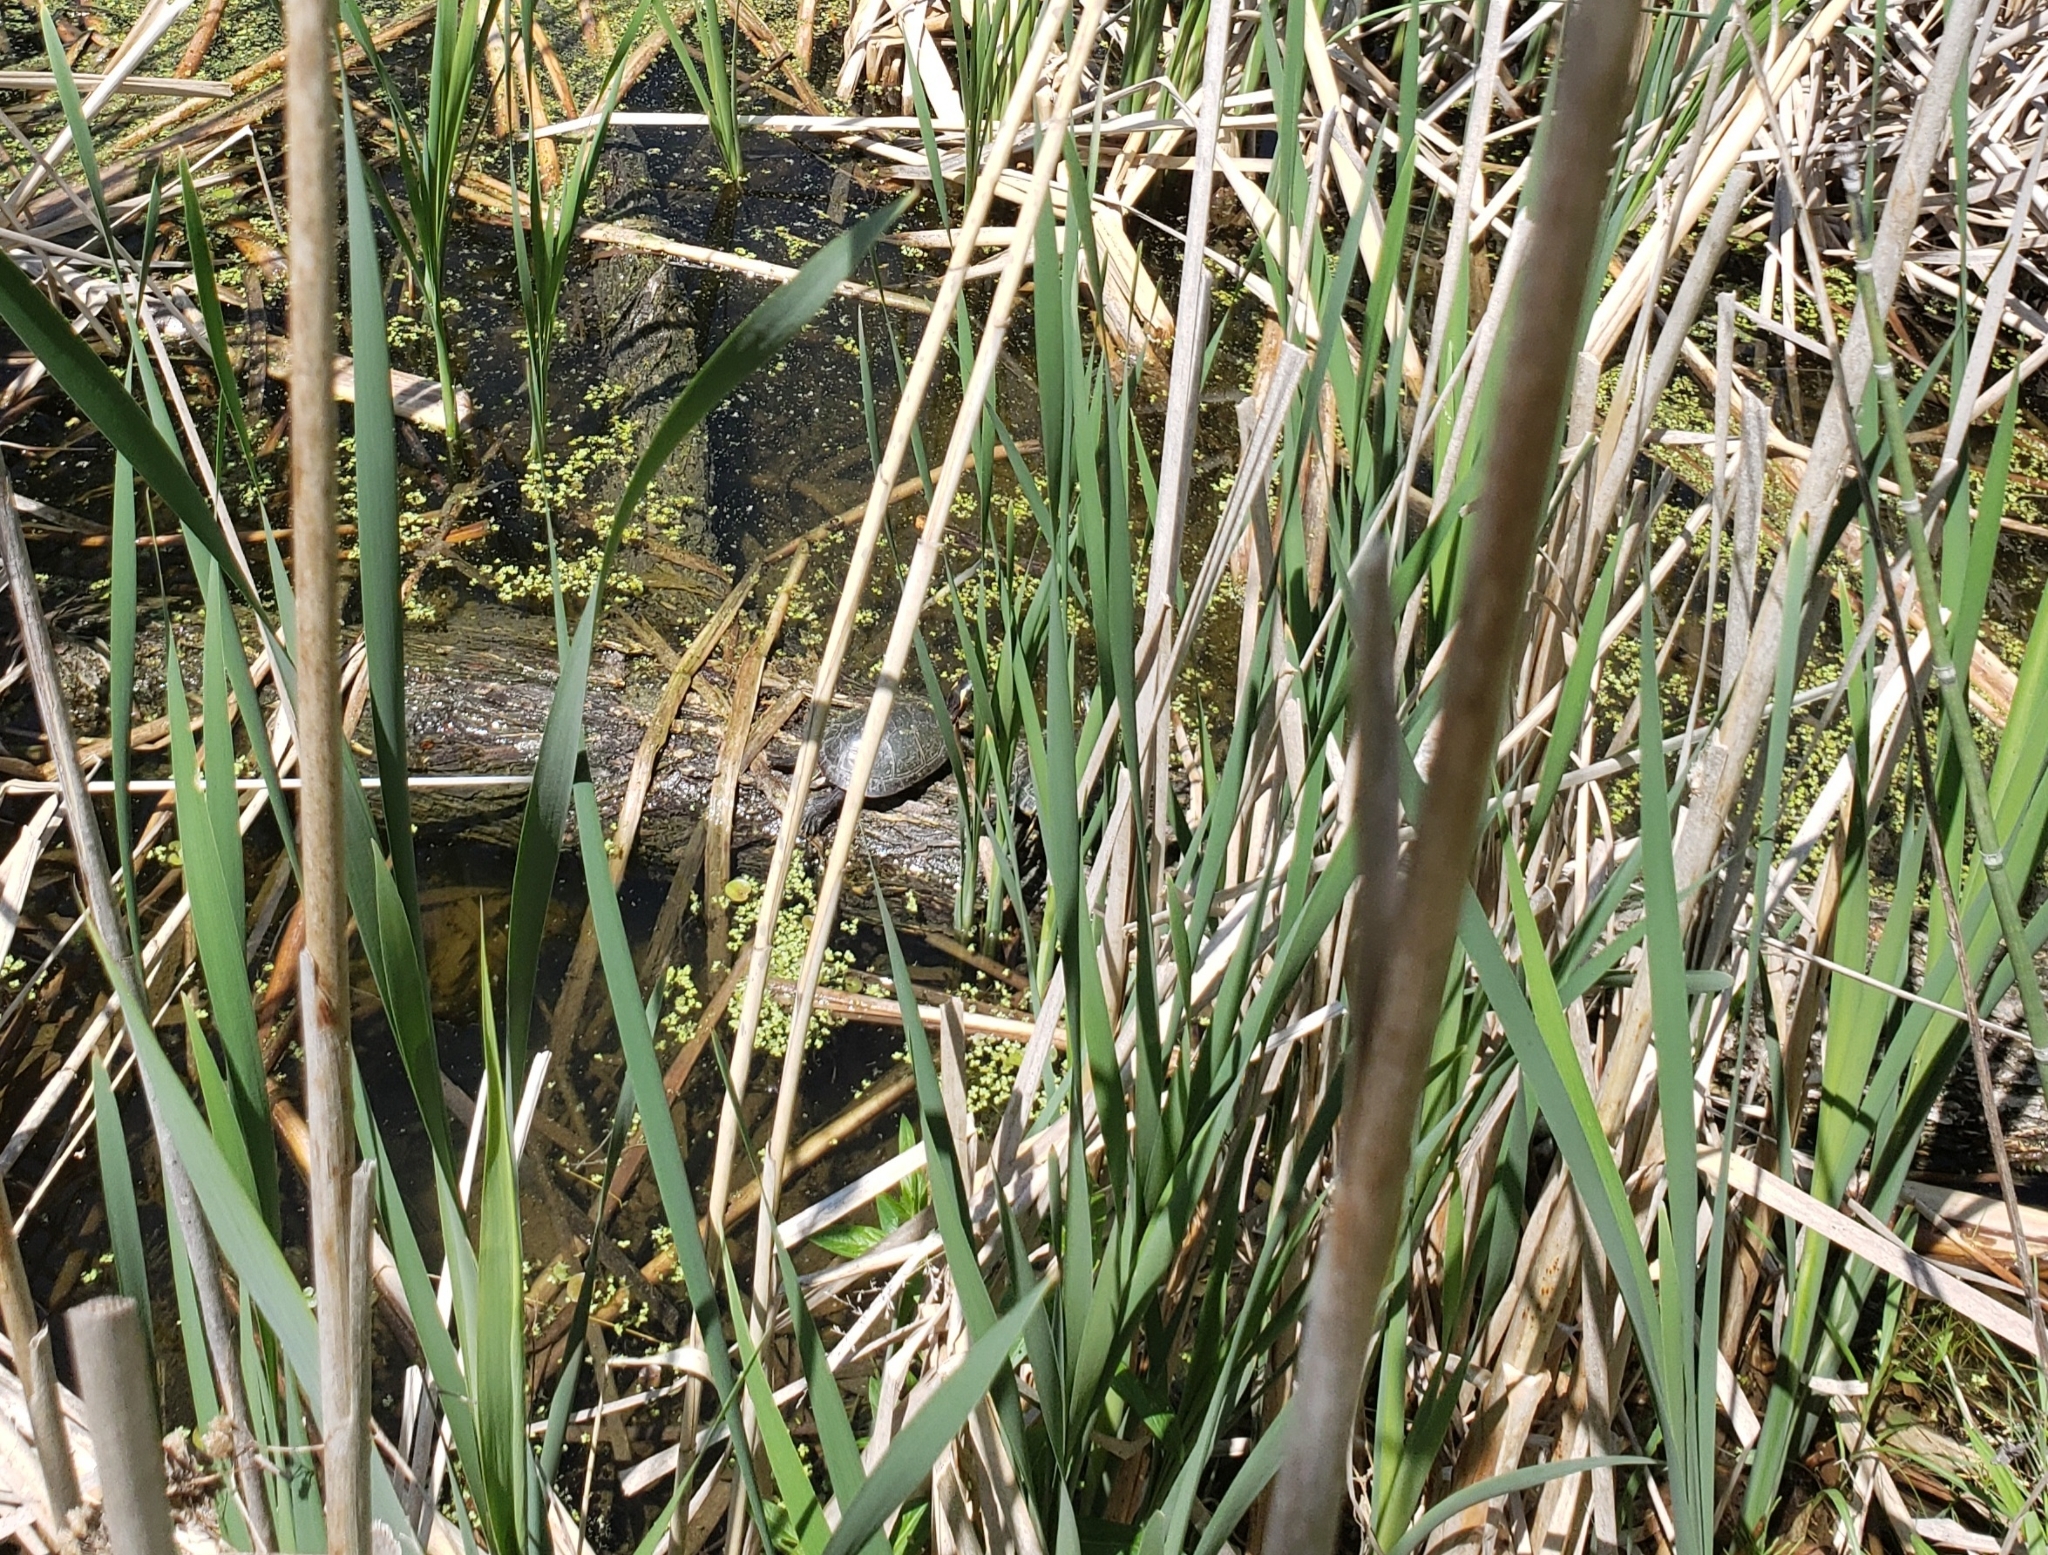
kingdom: Animalia
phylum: Chordata
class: Testudines
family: Emydidae
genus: Chrysemys
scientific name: Chrysemys picta
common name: Painted turtle
